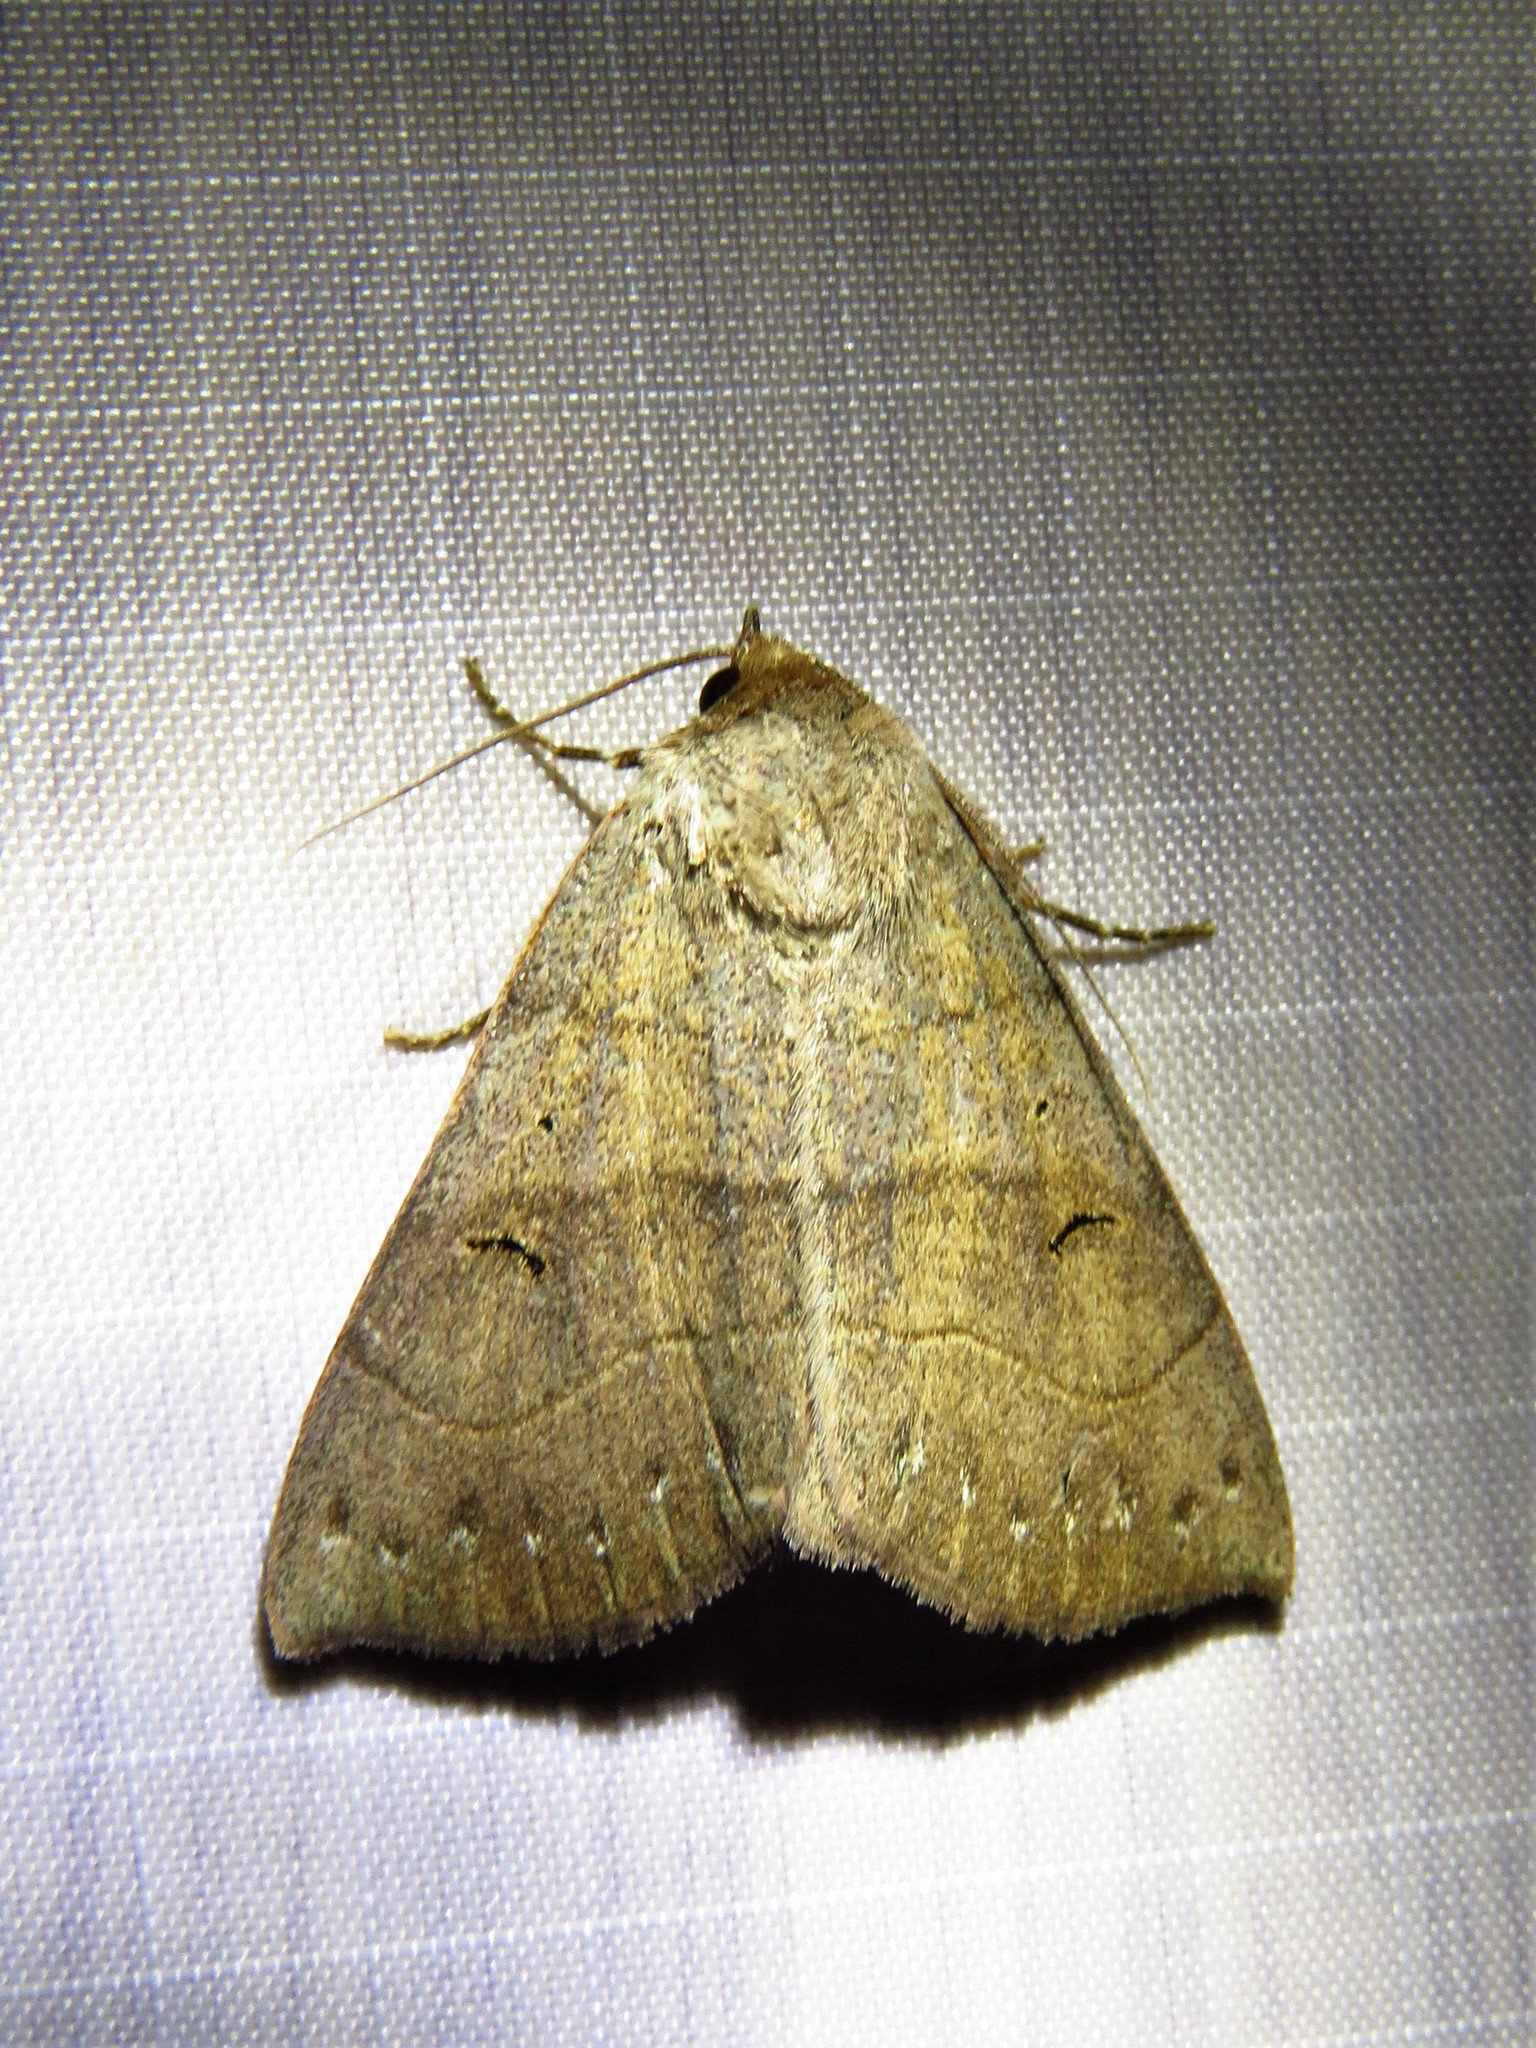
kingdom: Animalia
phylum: Arthropoda
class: Insecta
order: Lepidoptera
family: Erebidae
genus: Panopoda
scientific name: Panopoda carneicosta
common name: Brown panopoda moth
